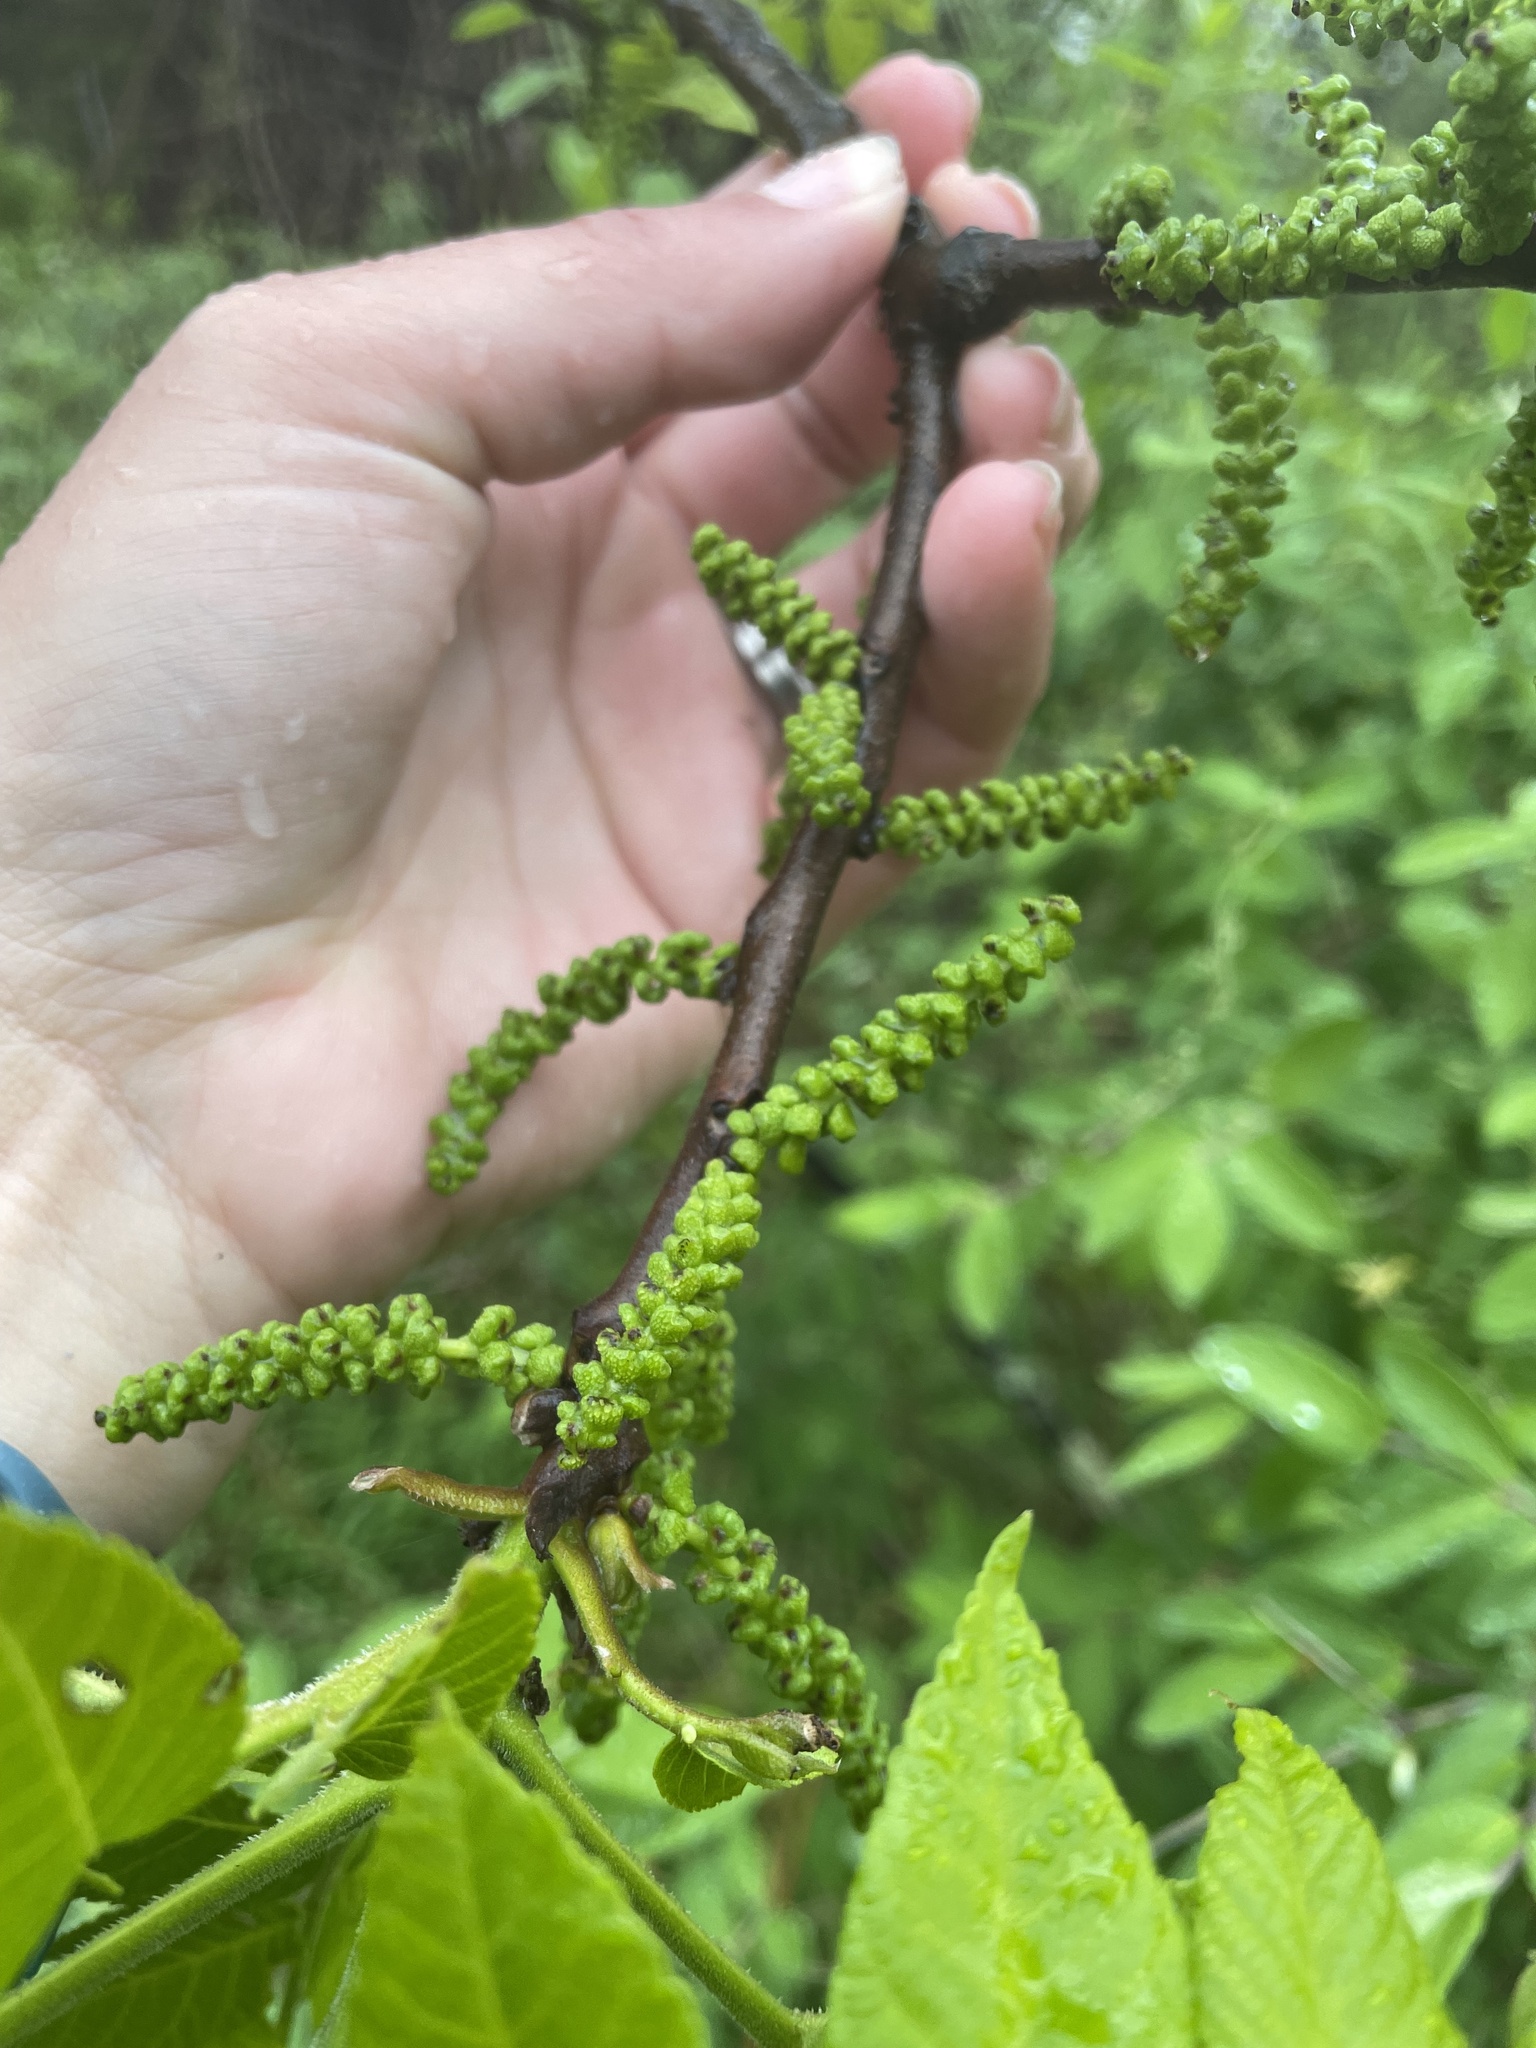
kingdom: Plantae
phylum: Tracheophyta
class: Magnoliopsida
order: Fagales
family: Juglandaceae
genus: Juglans
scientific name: Juglans nigra
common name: Black walnut
